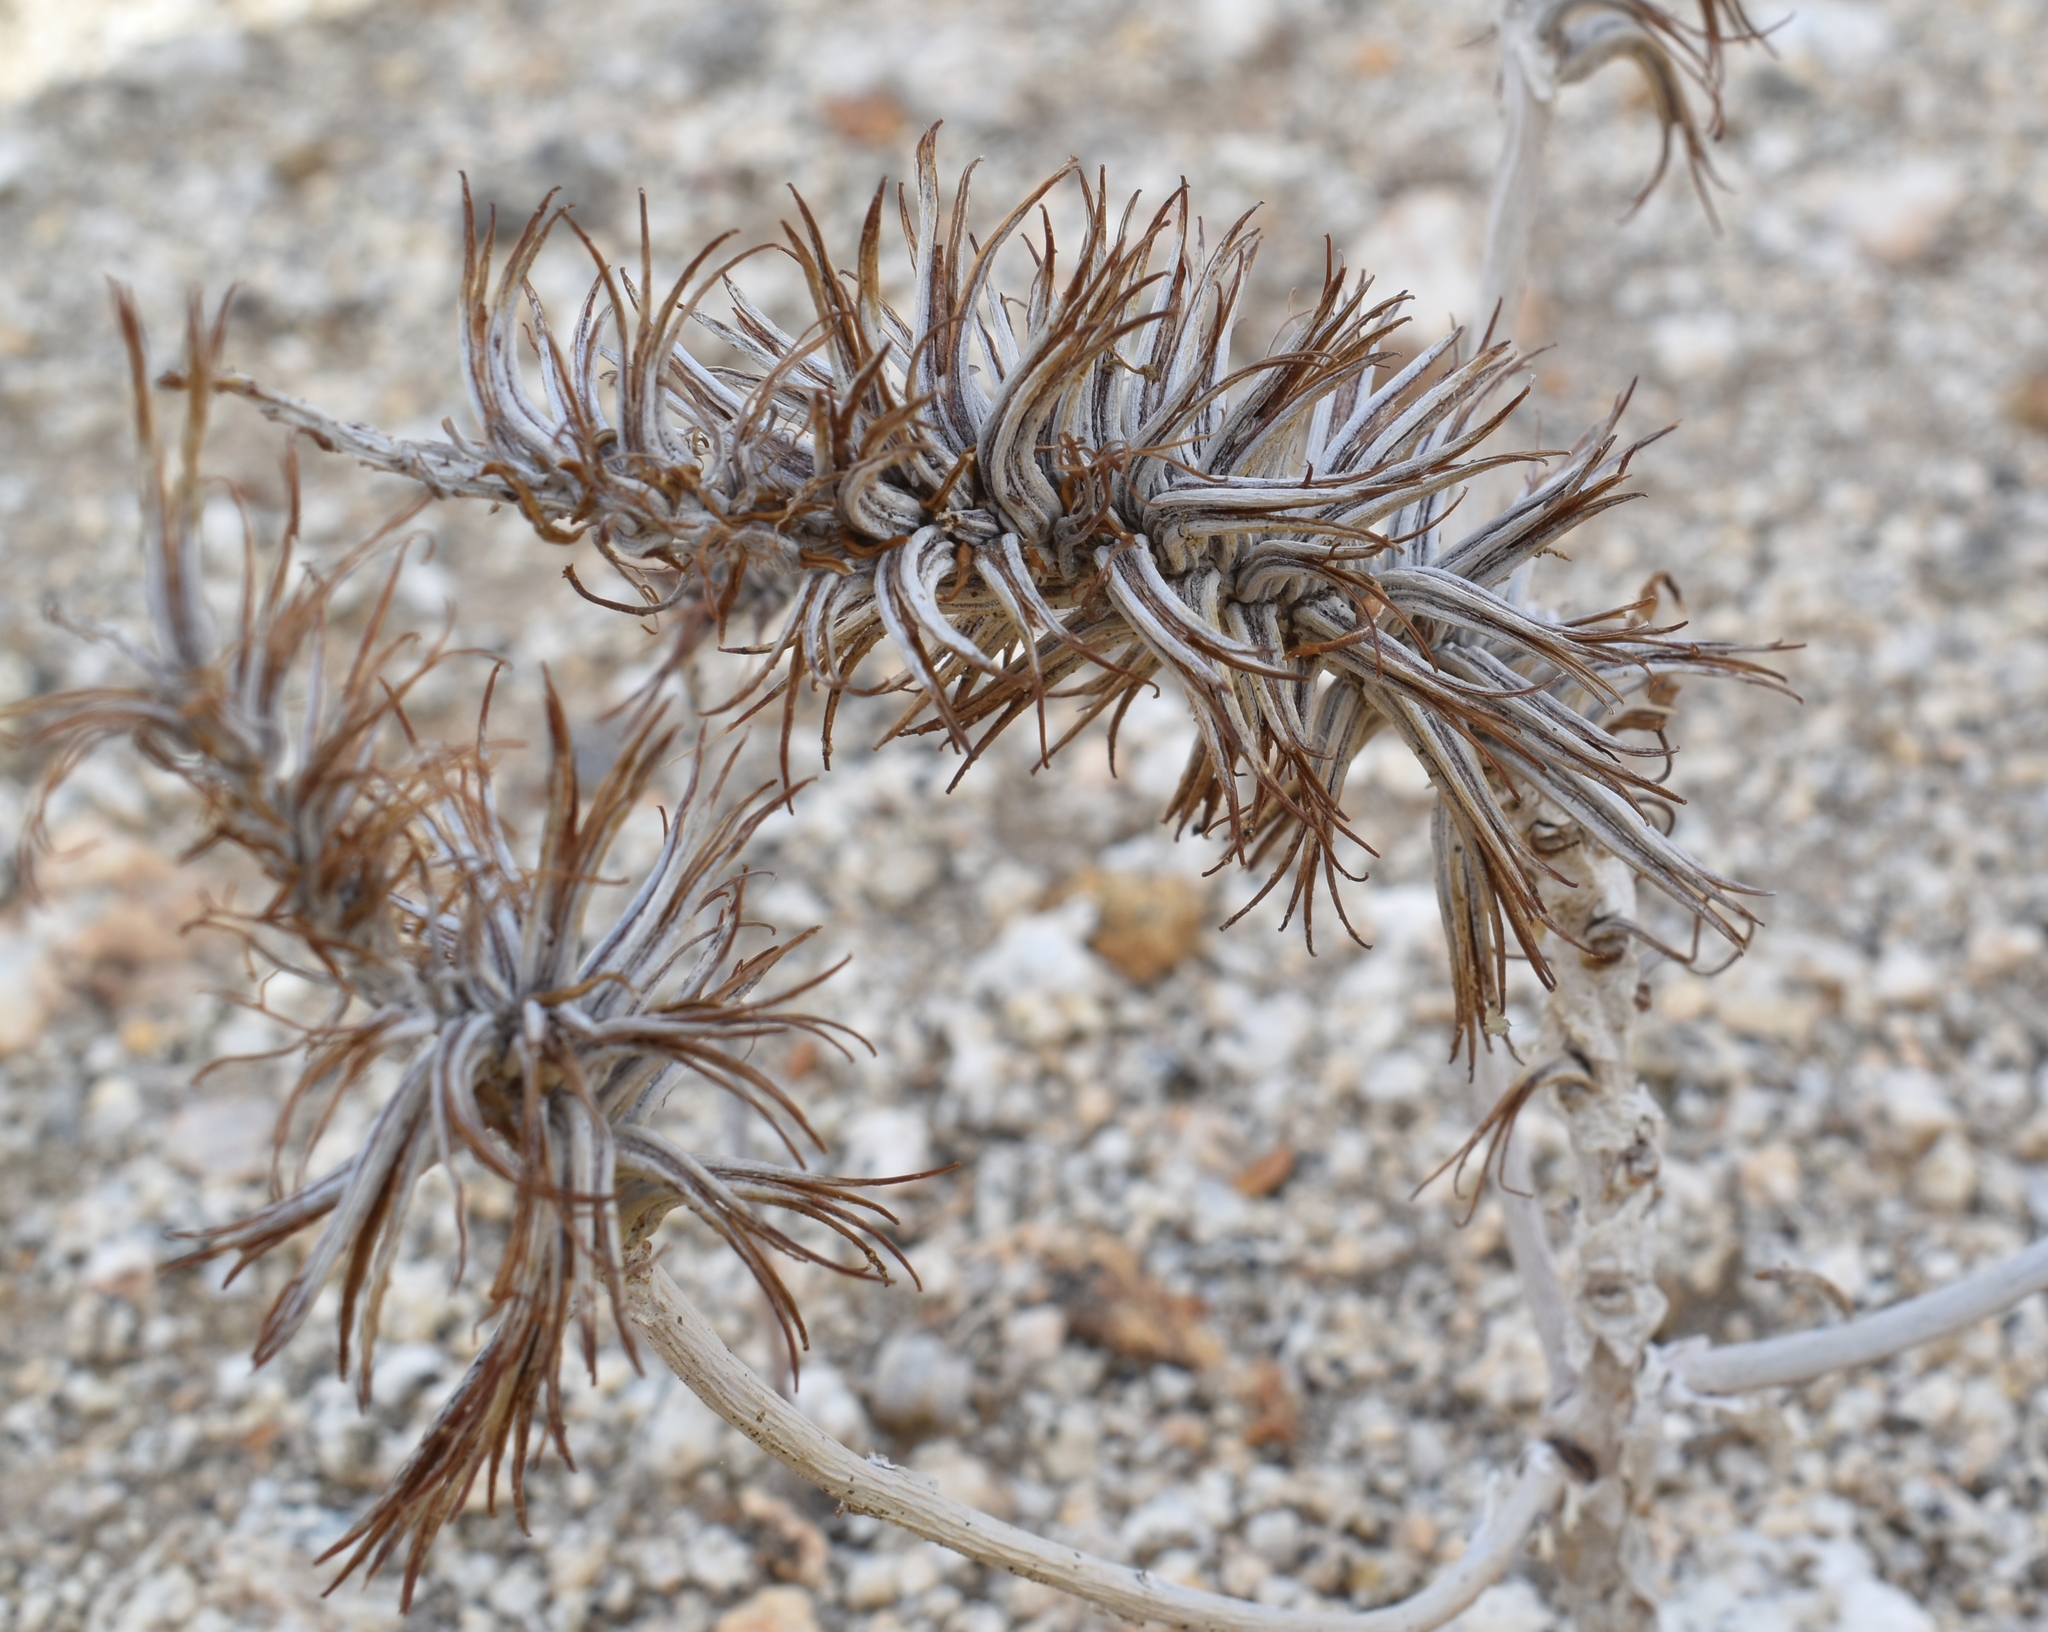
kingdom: Plantae
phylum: Tracheophyta
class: Magnoliopsida
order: Myrtales
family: Onagraceae
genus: Eremothera
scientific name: Eremothera boothii
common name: Booth's evening primrose
